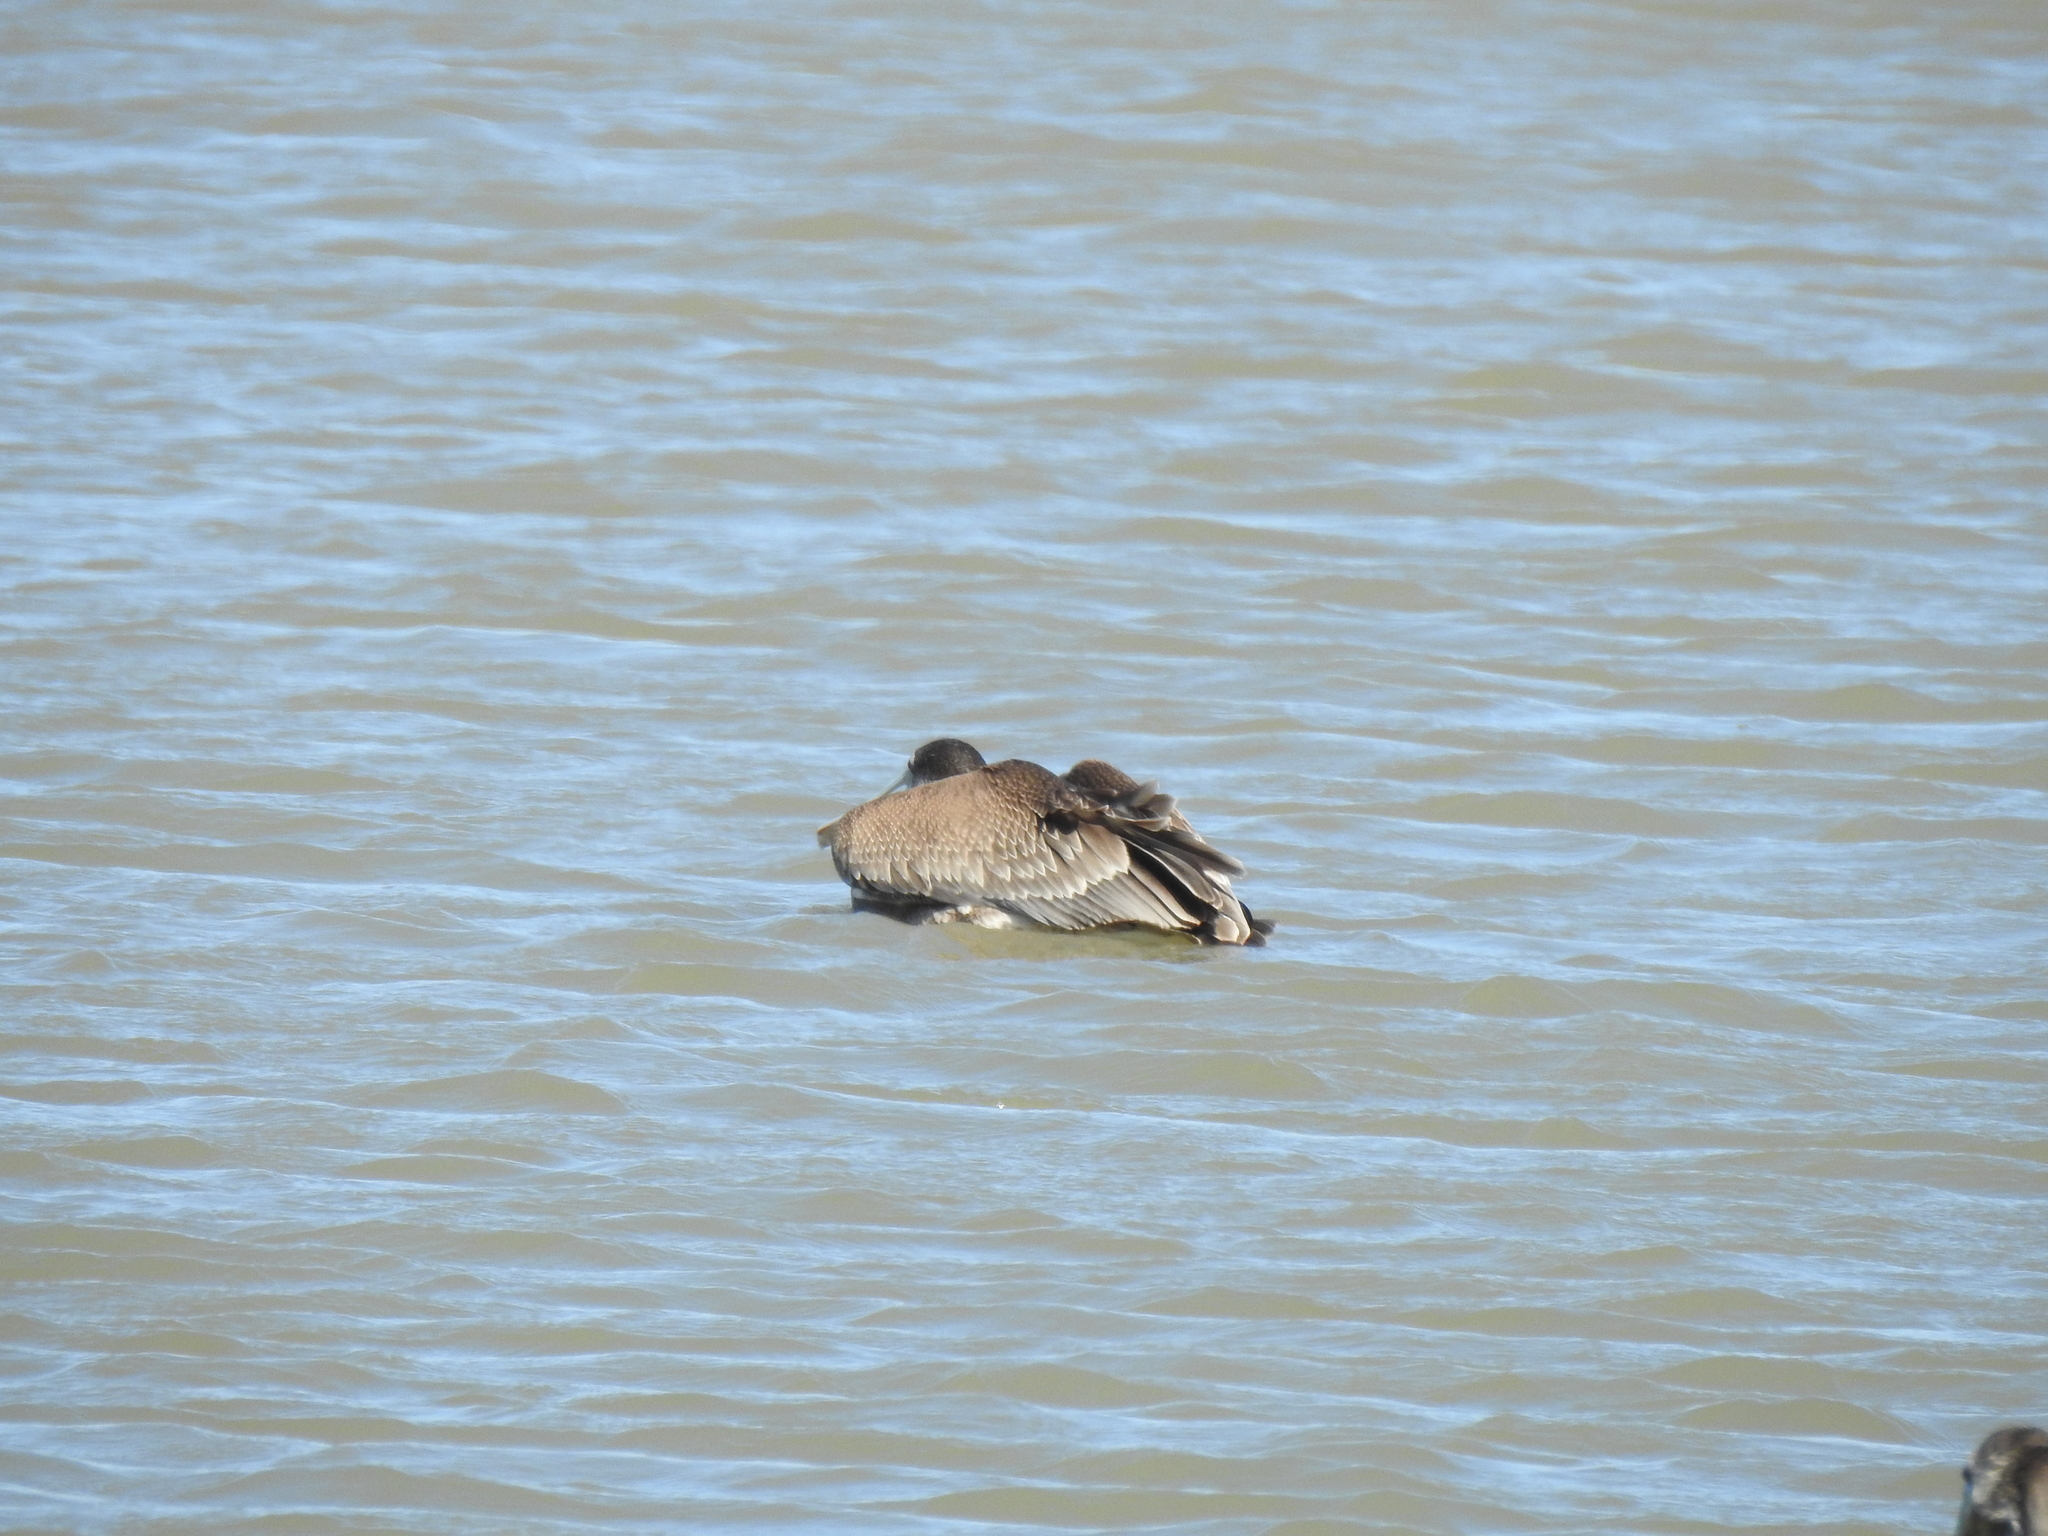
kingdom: Animalia
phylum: Chordata
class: Aves
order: Pelecaniformes
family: Pelecanidae
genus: Pelecanus
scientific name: Pelecanus occidentalis
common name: Brown pelican
